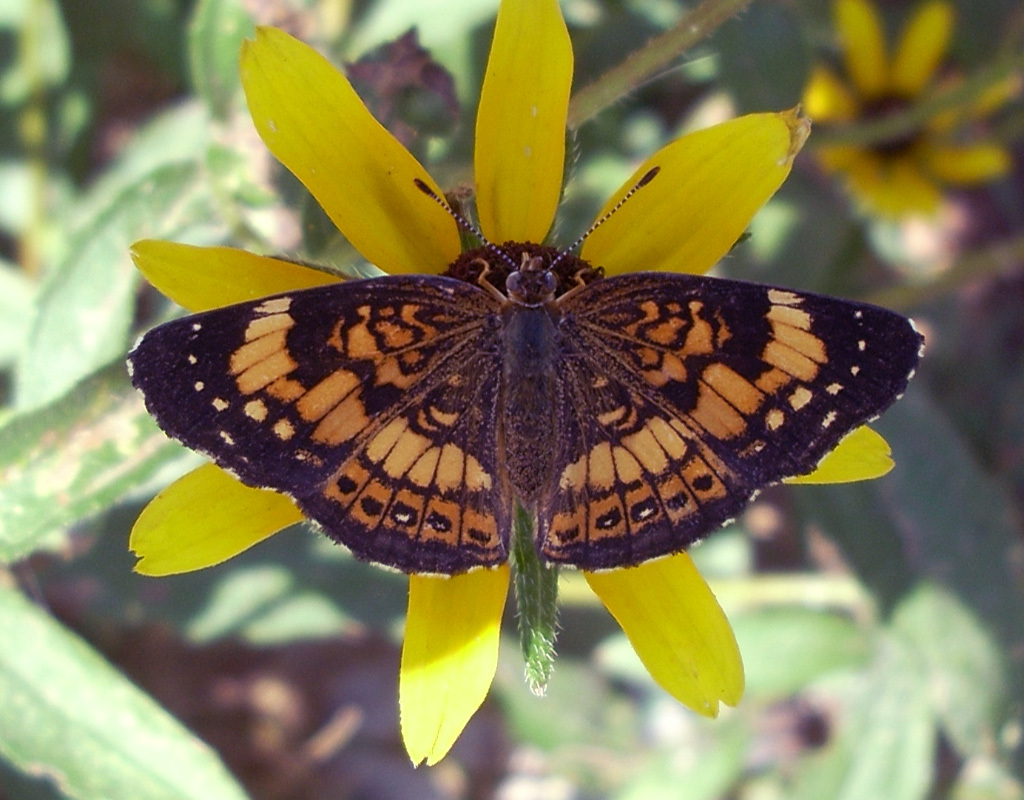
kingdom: Animalia
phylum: Arthropoda
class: Insecta
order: Lepidoptera
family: Nymphalidae
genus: Chlosyne
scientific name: Chlosyne nycteis
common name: Silvery checkerspot
